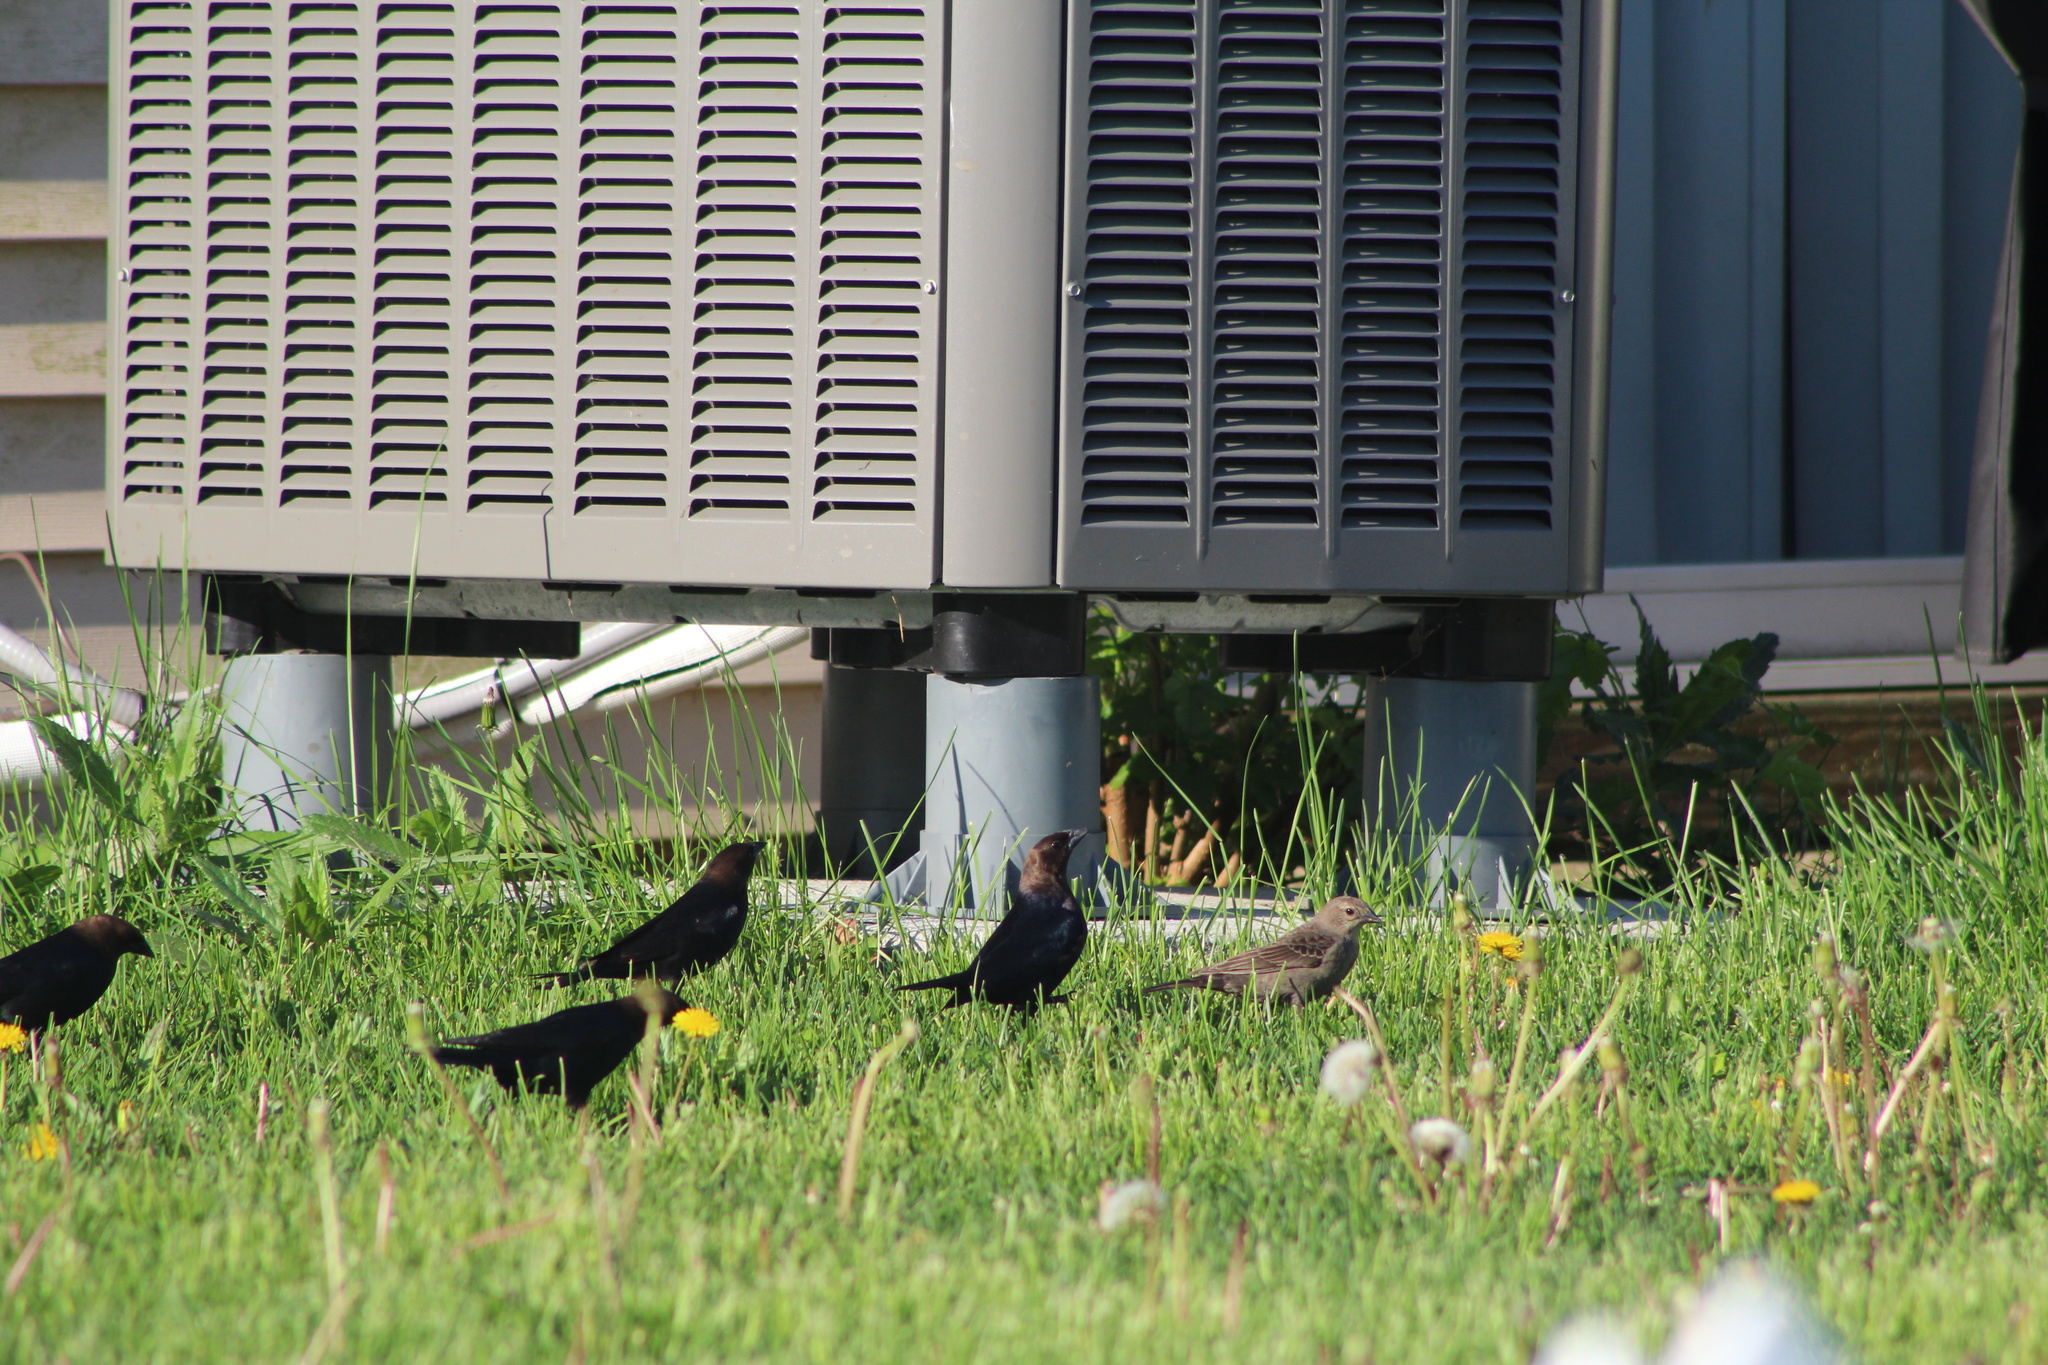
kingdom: Animalia
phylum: Chordata
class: Aves
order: Passeriformes
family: Icteridae
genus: Molothrus
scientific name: Molothrus ater
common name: Brown-headed cowbird
